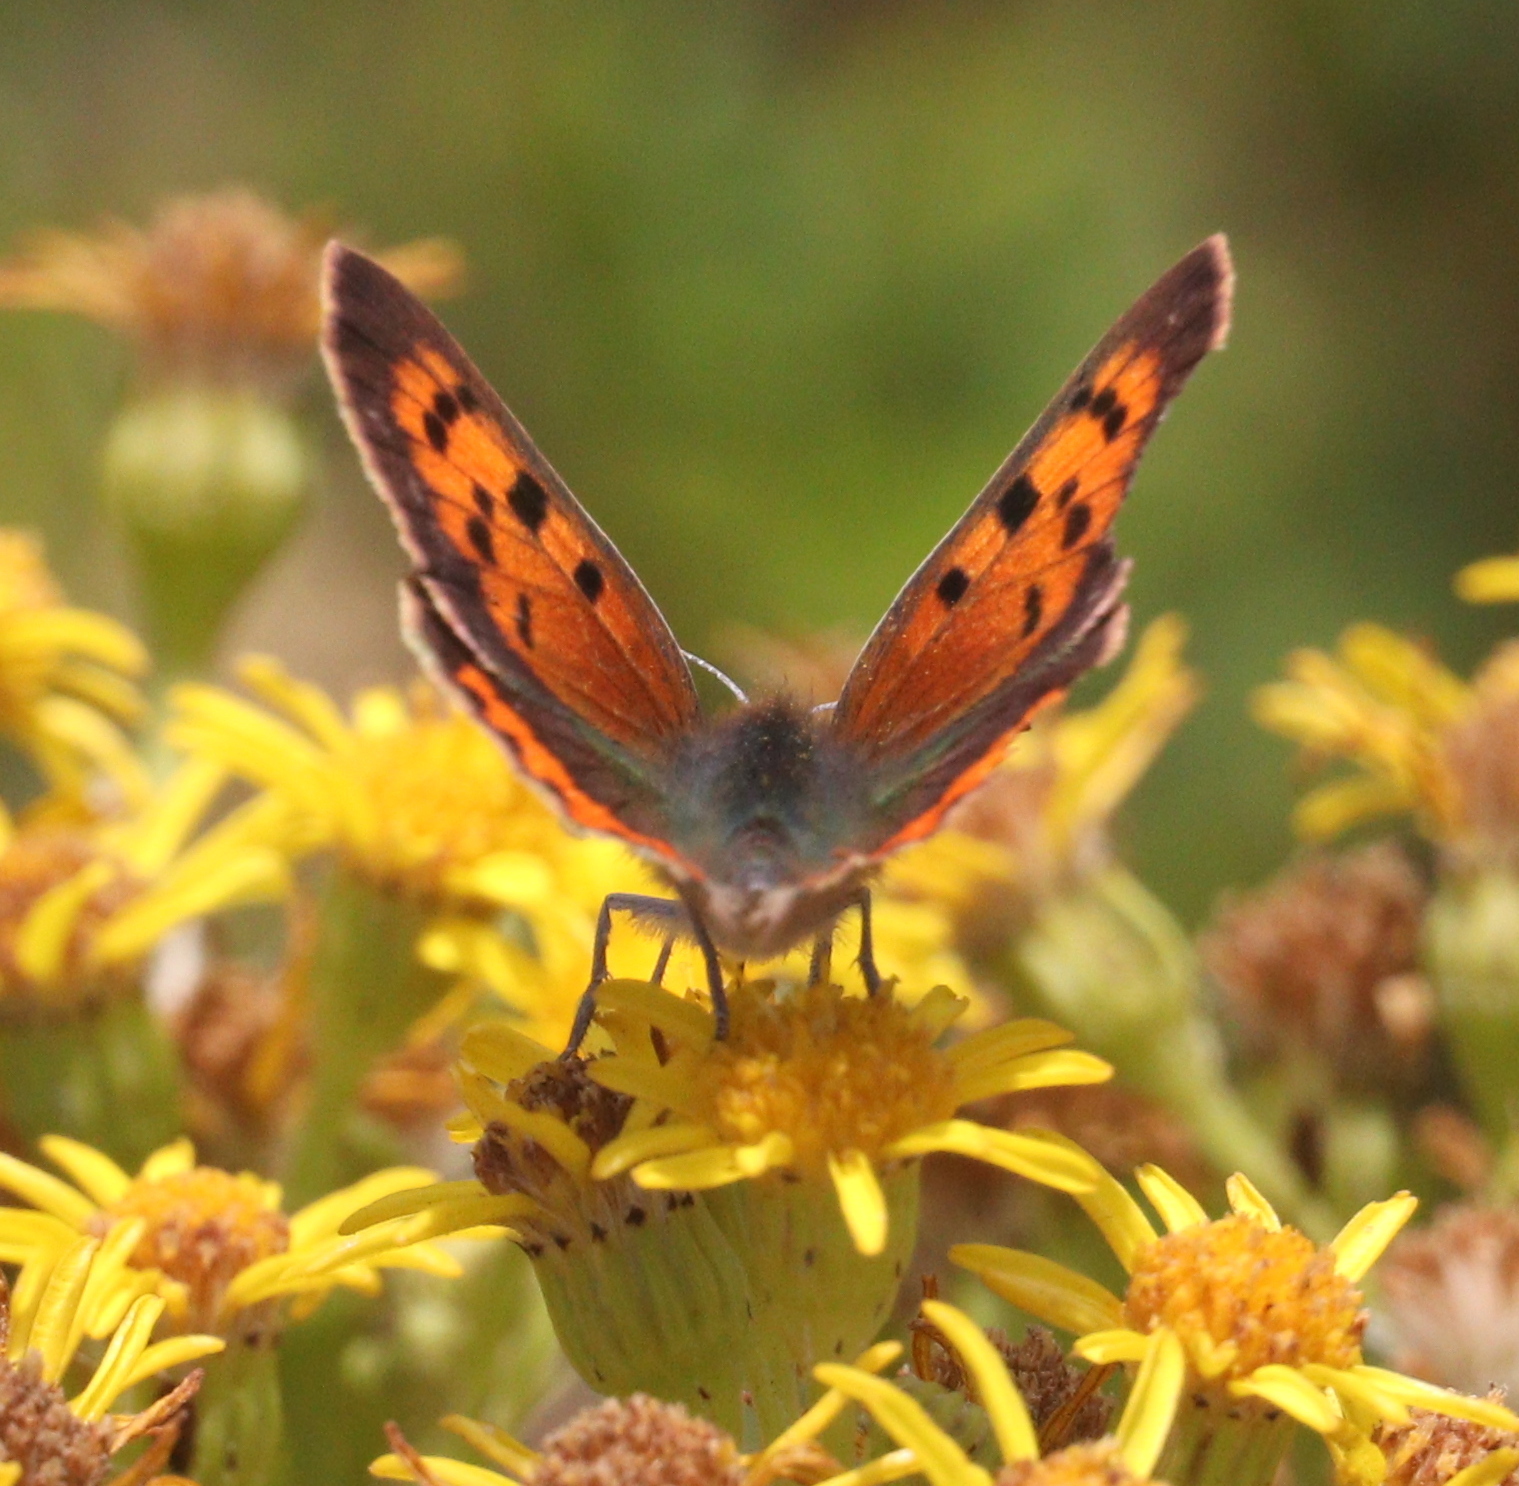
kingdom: Animalia
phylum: Arthropoda
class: Insecta
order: Lepidoptera
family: Lycaenidae
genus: Lycaena
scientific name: Lycaena phlaeas
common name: Small copper
